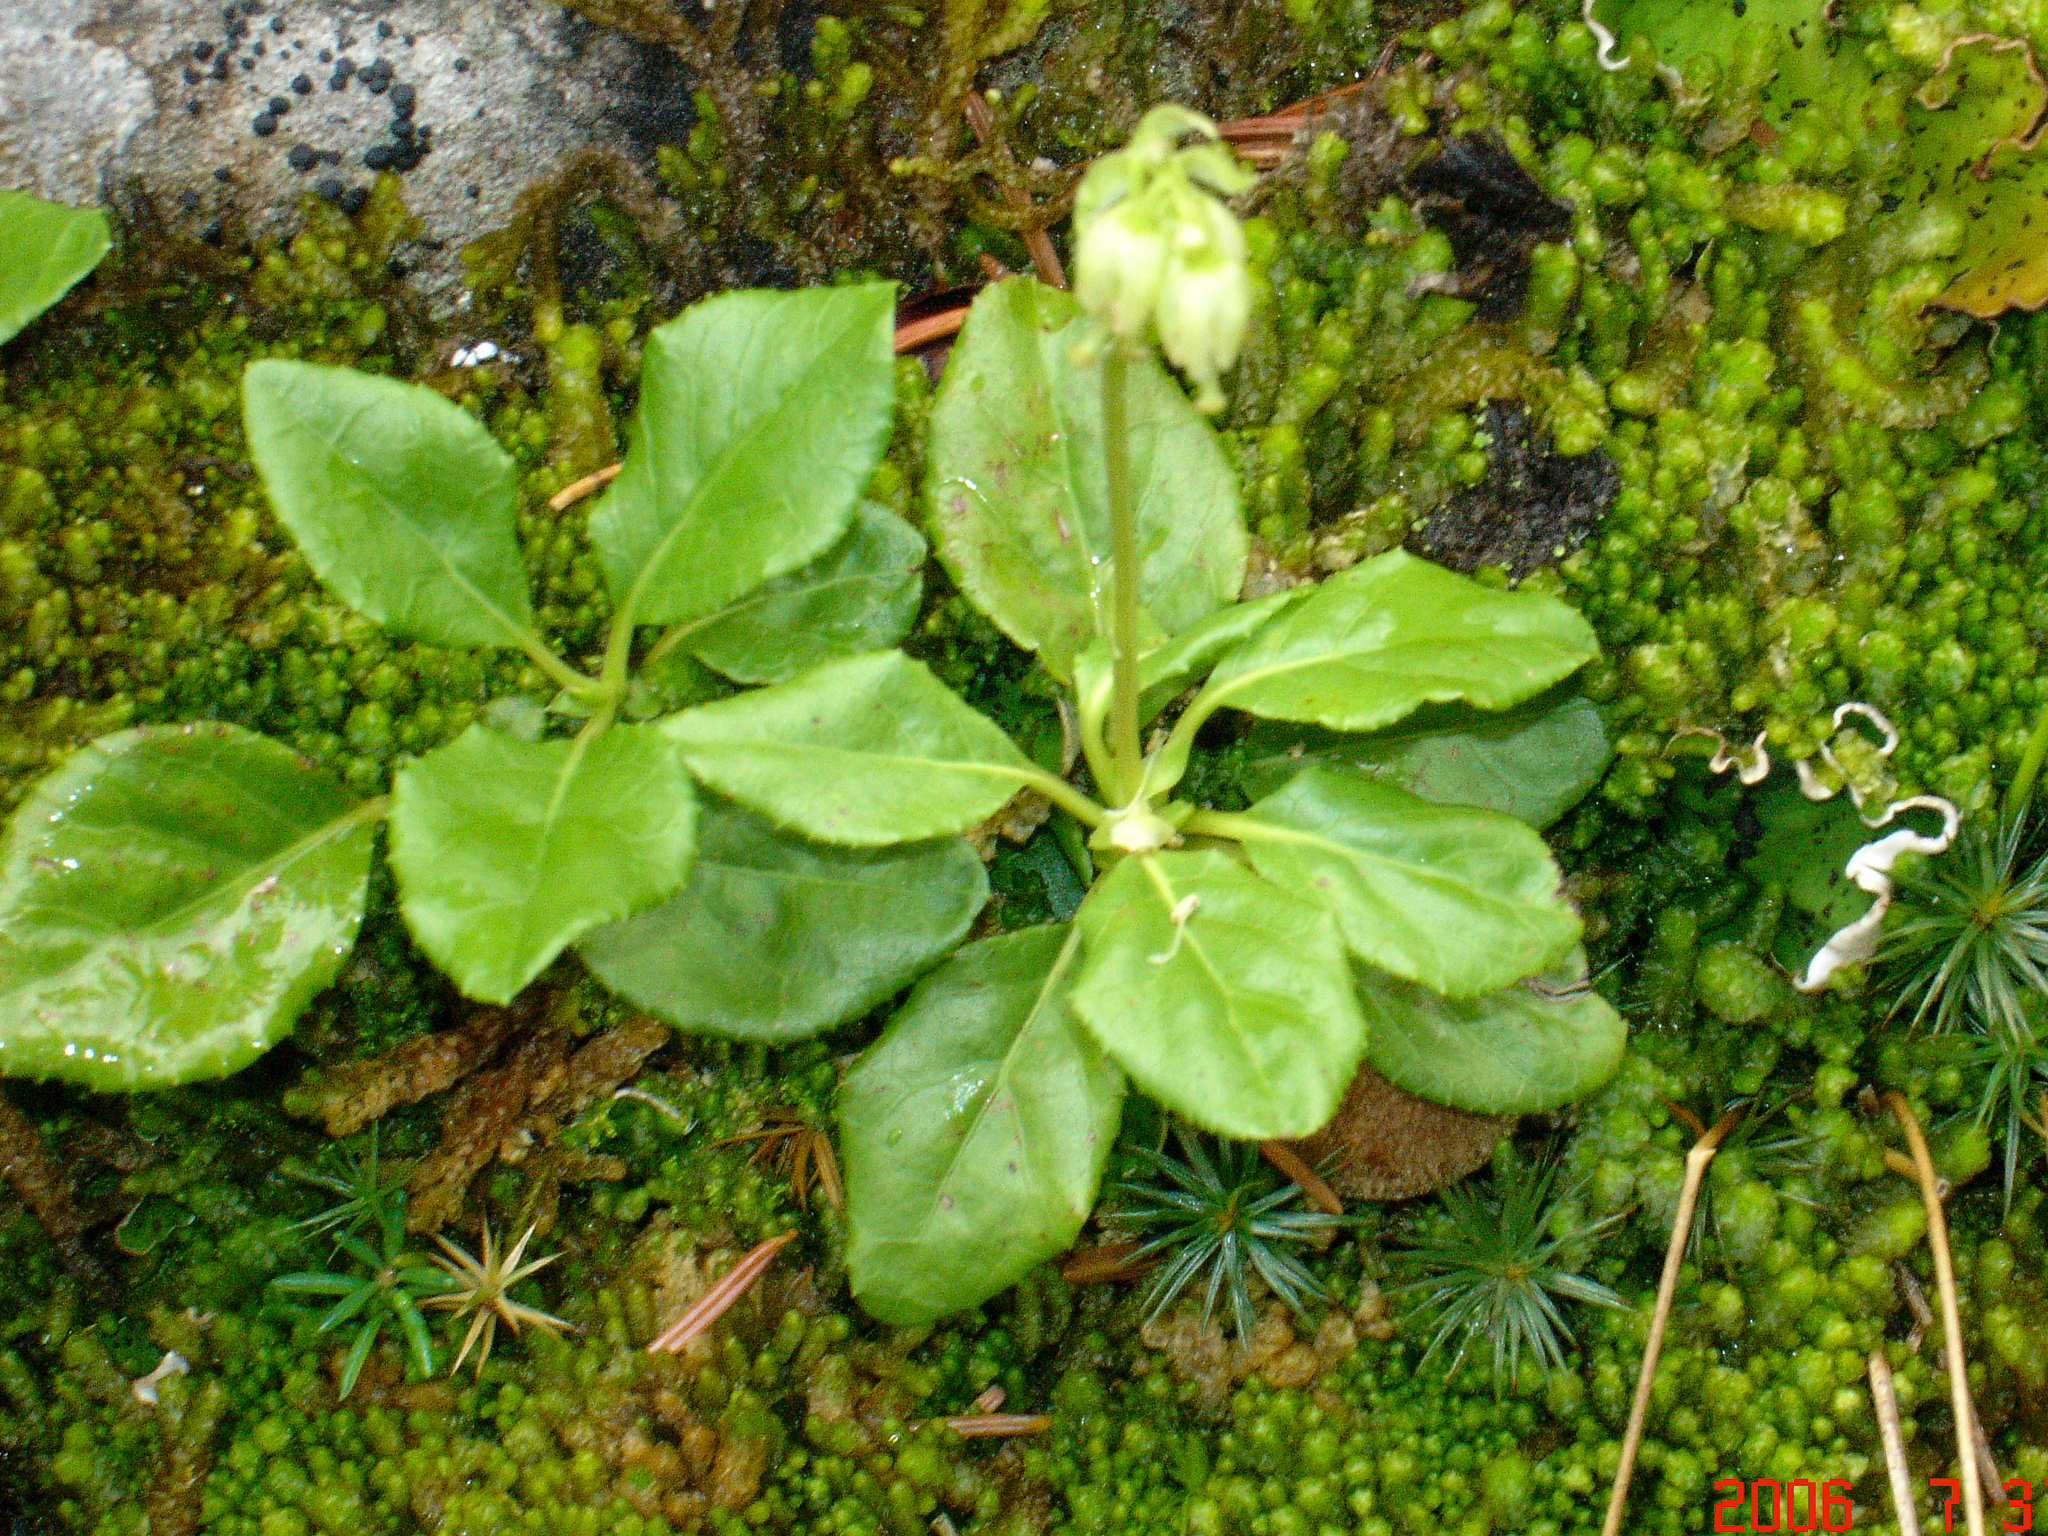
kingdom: Plantae
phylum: Tracheophyta
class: Magnoliopsida
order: Ericales
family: Ericaceae
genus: Orthilia
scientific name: Orthilia secunda
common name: One-sided orthilia
